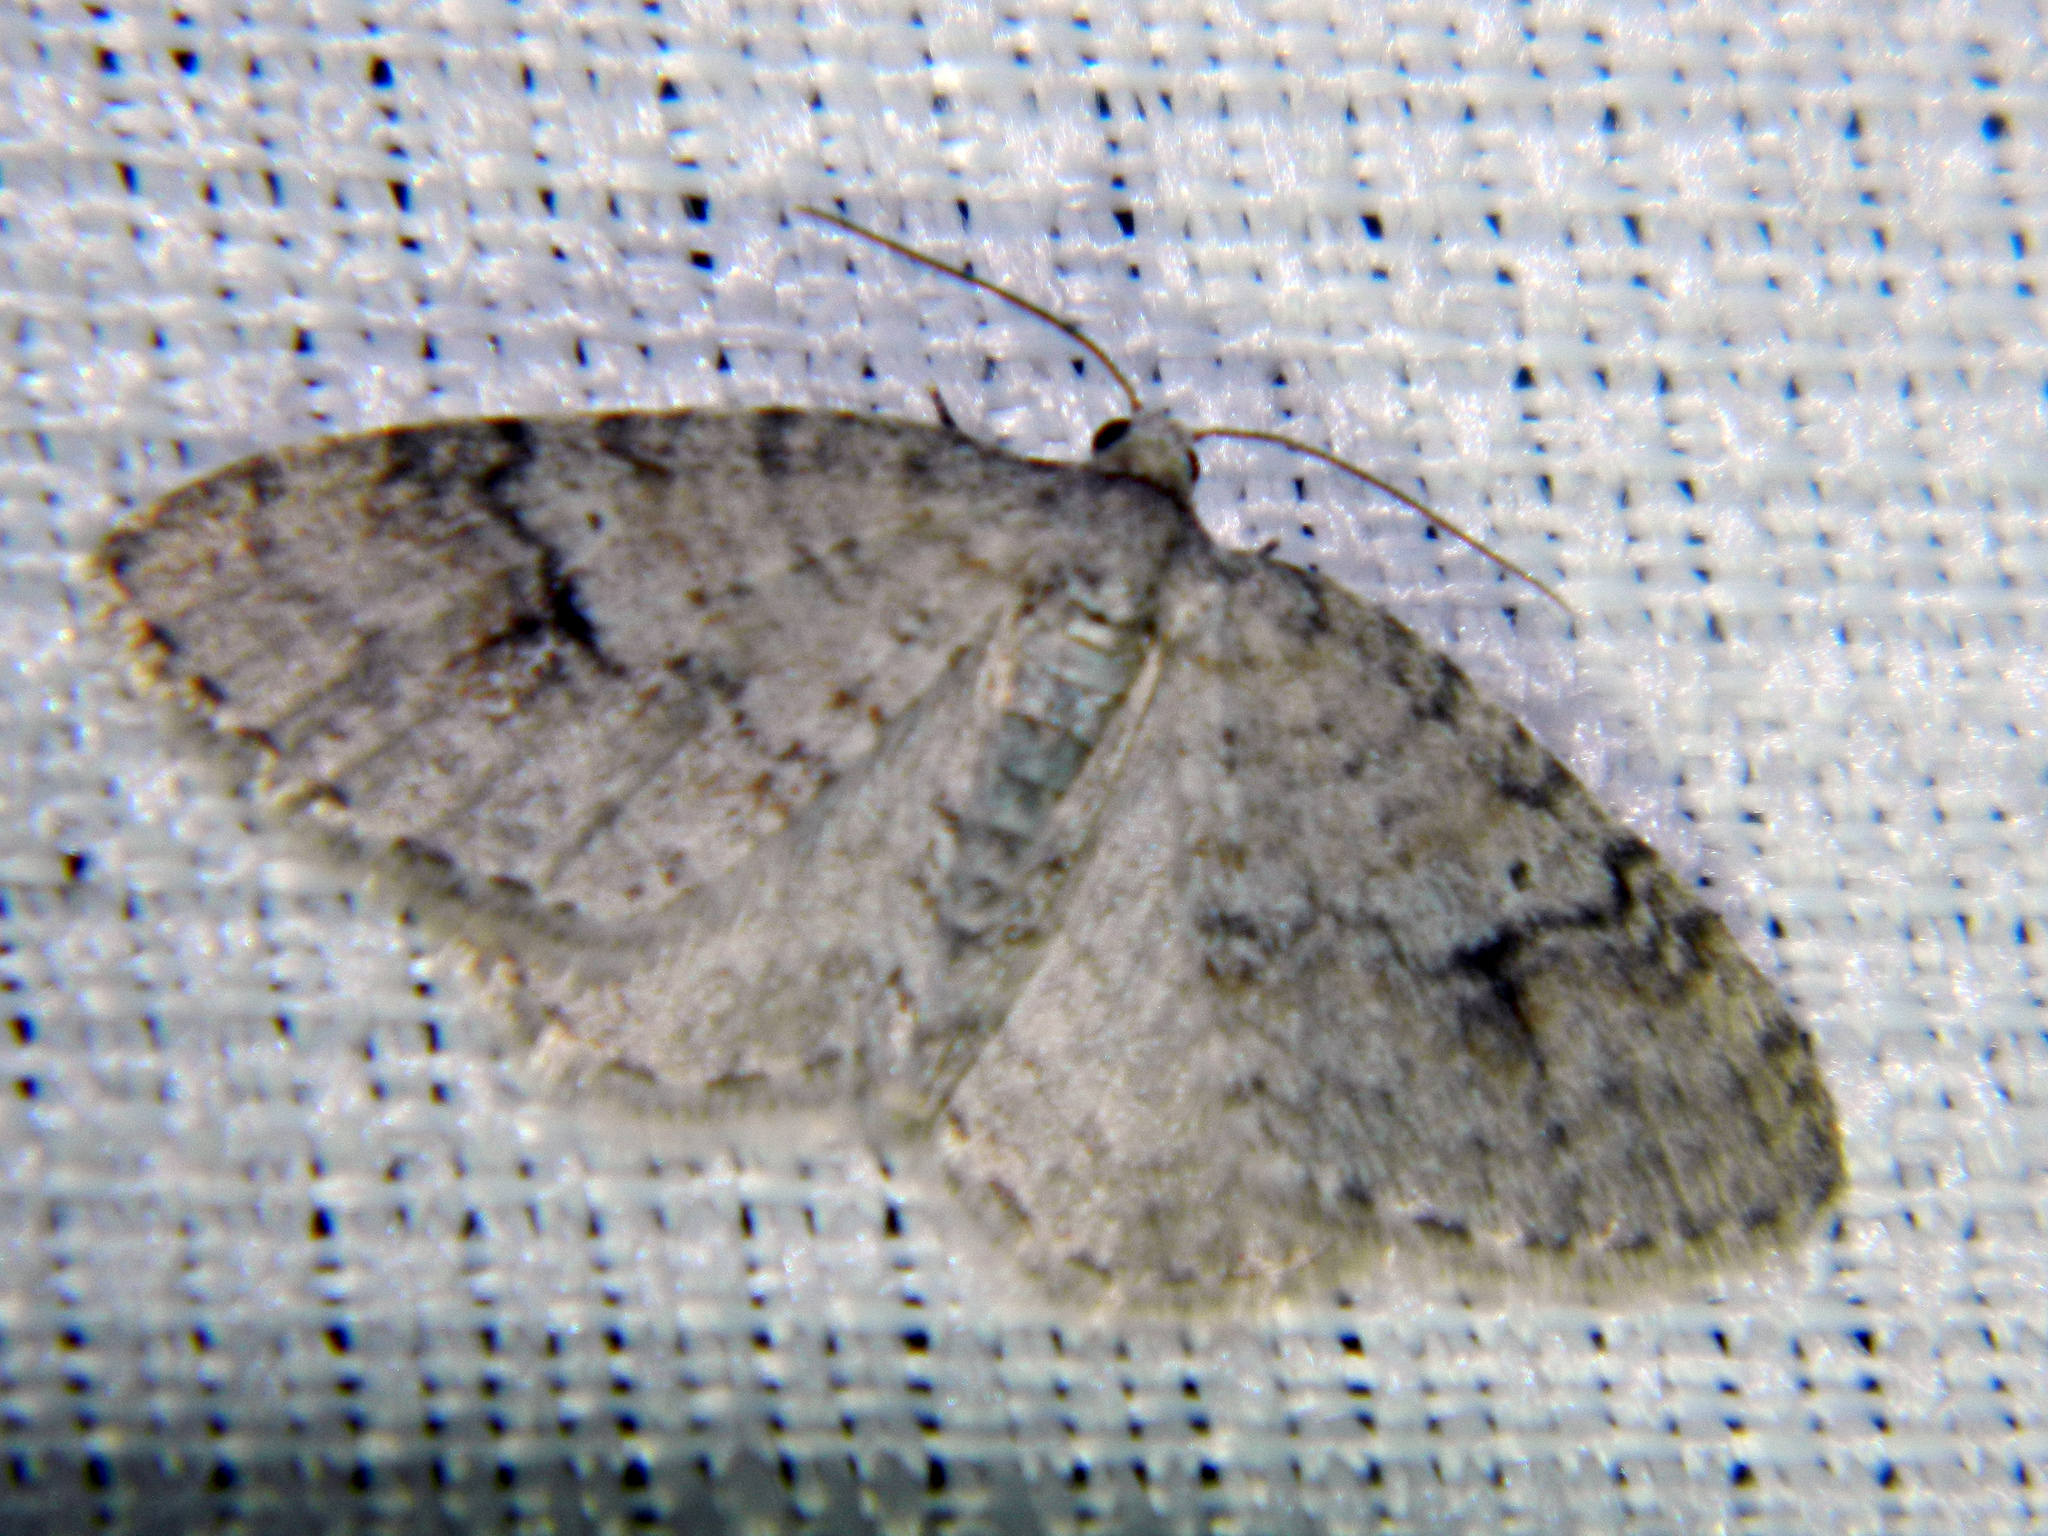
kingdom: Animalia
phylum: Arthropoda
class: Insecta
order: Lepidoptera
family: Geometridae
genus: Venusia
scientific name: Venusia comptaria
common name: Brown-shaded carpet
